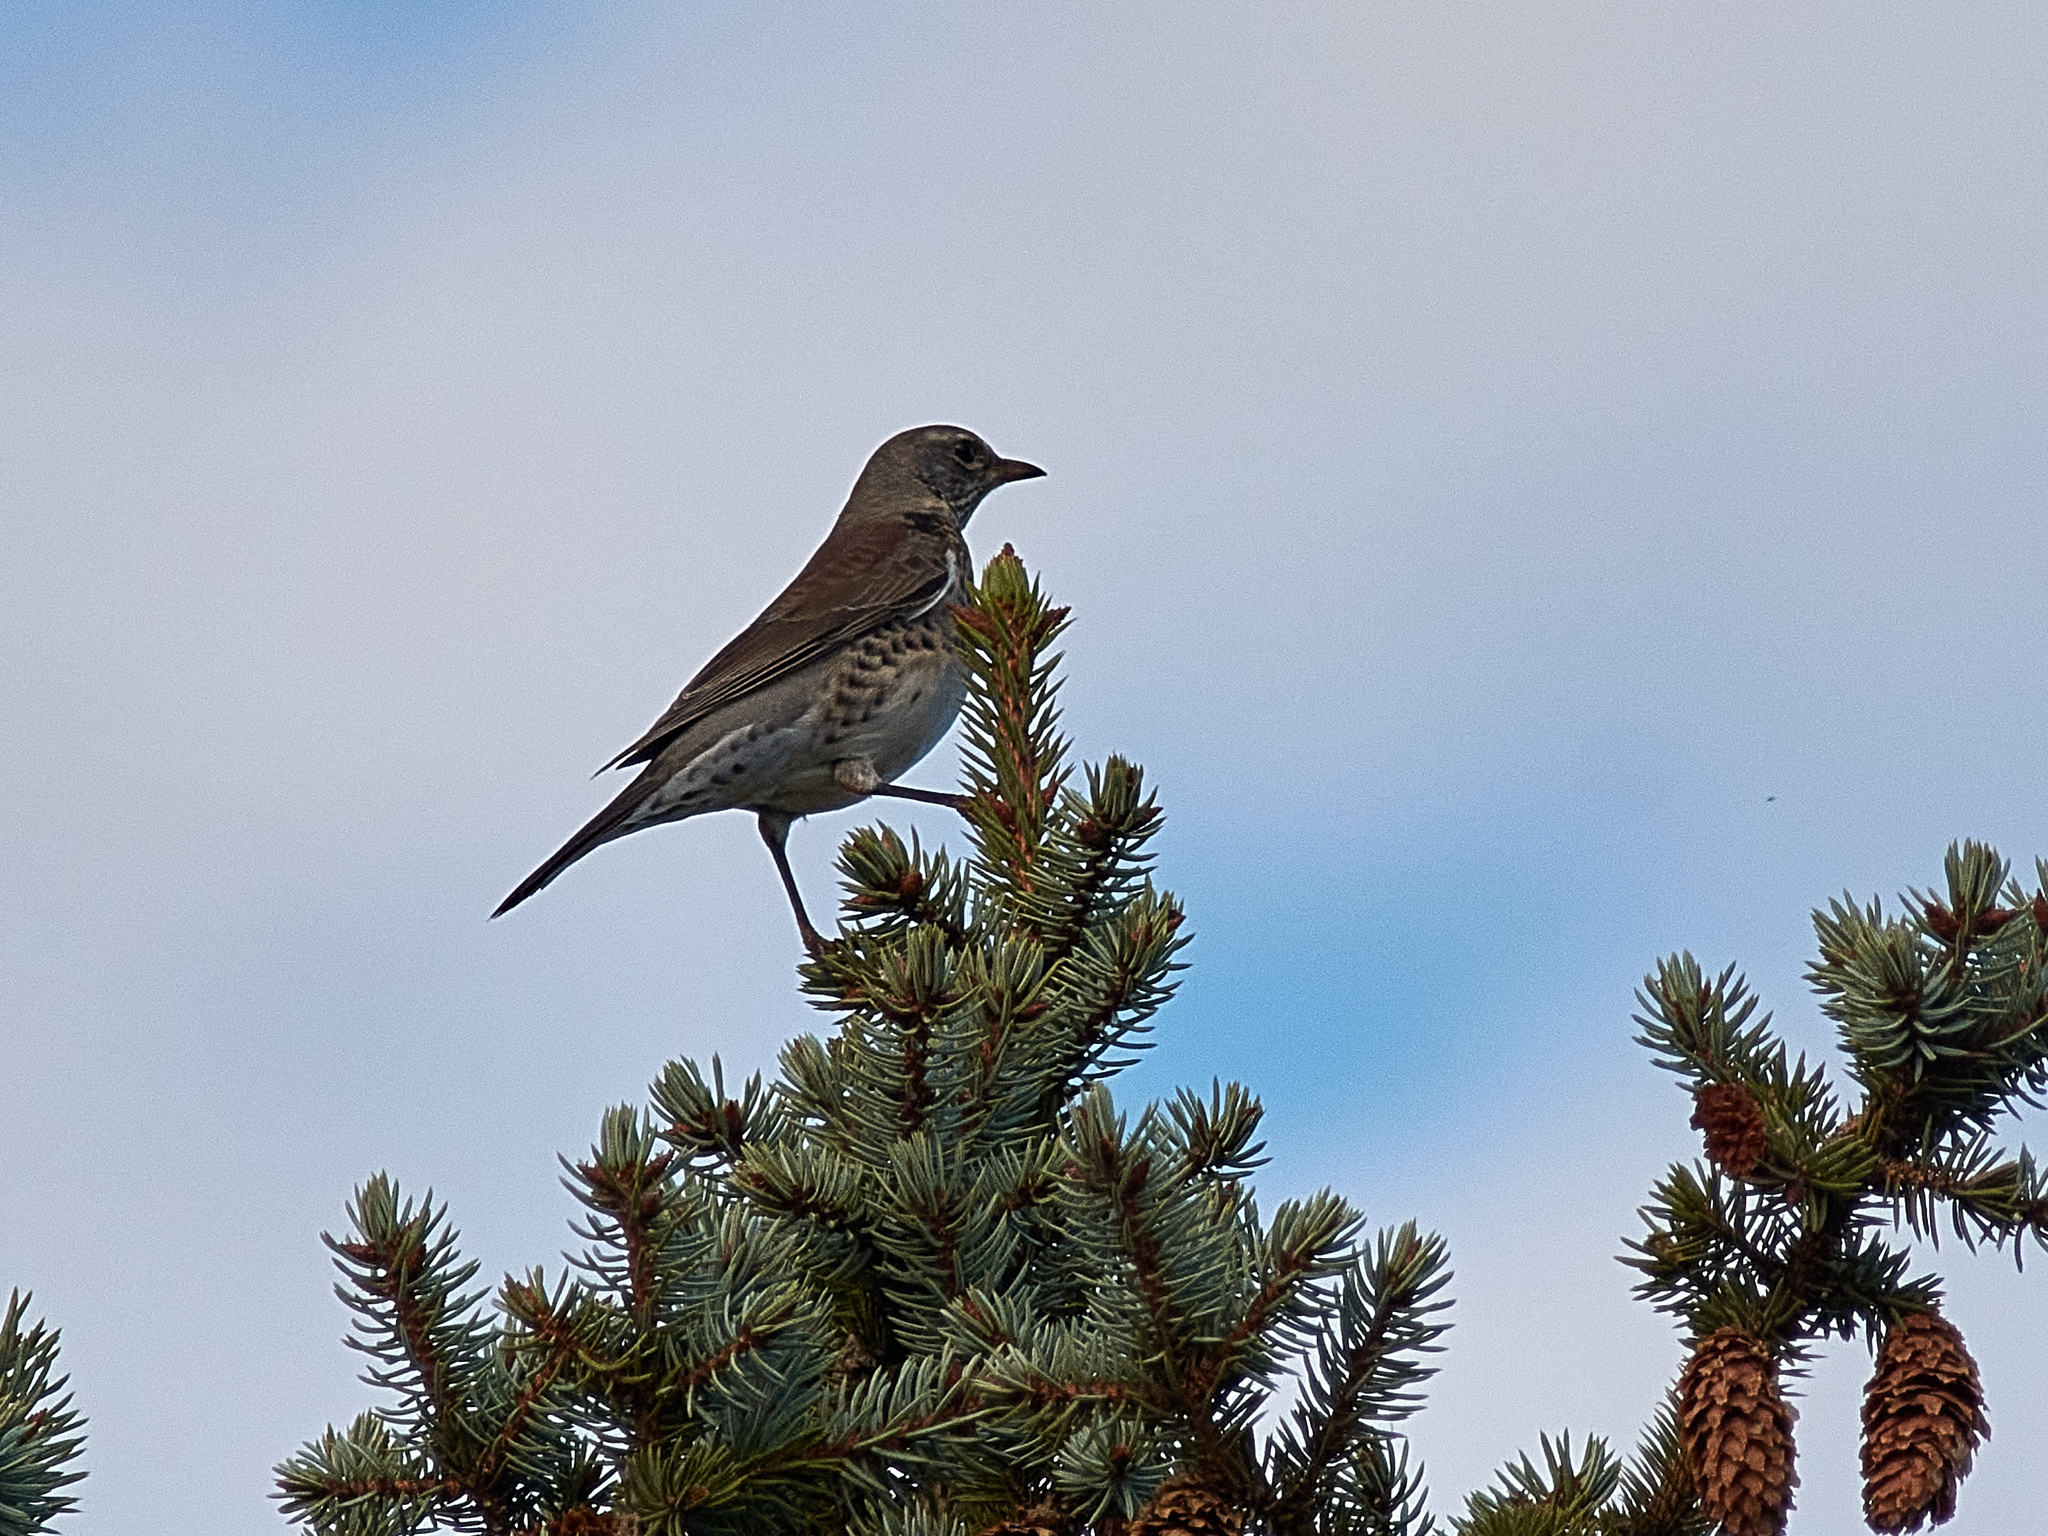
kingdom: Animalia
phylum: Chordata
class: Aves
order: Passeriformes
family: Turdidae
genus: Turdus
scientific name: Turdus pilaris
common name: Fieldfare
